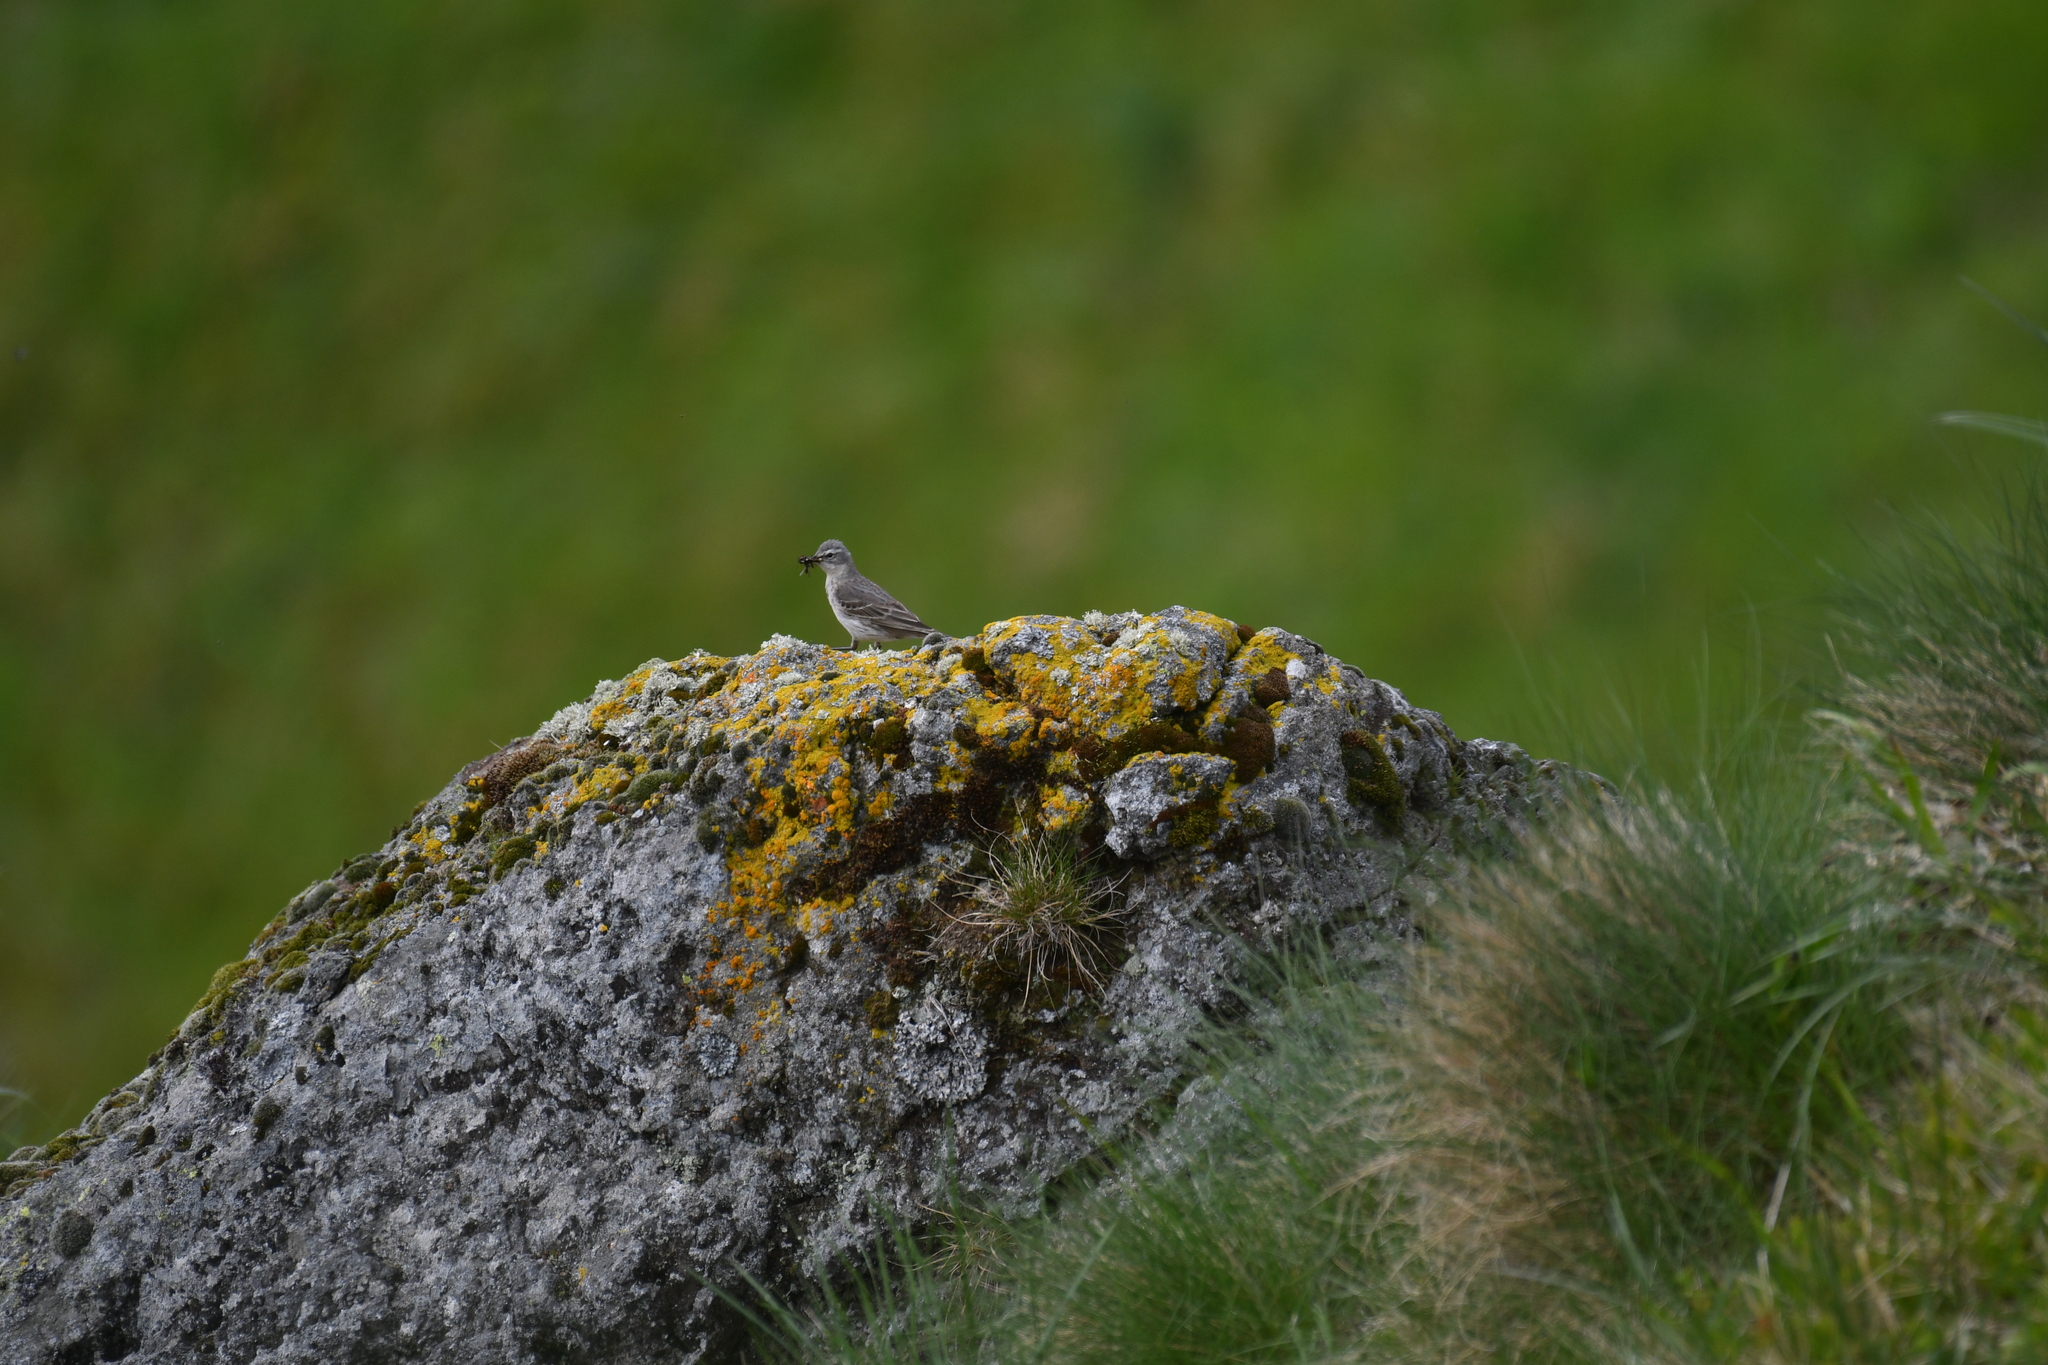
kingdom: Animalia
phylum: Chordata
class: Aves
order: Passeriformes
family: Motacillidae
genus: Anthus
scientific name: Anthus spinoletta
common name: Water pipit
